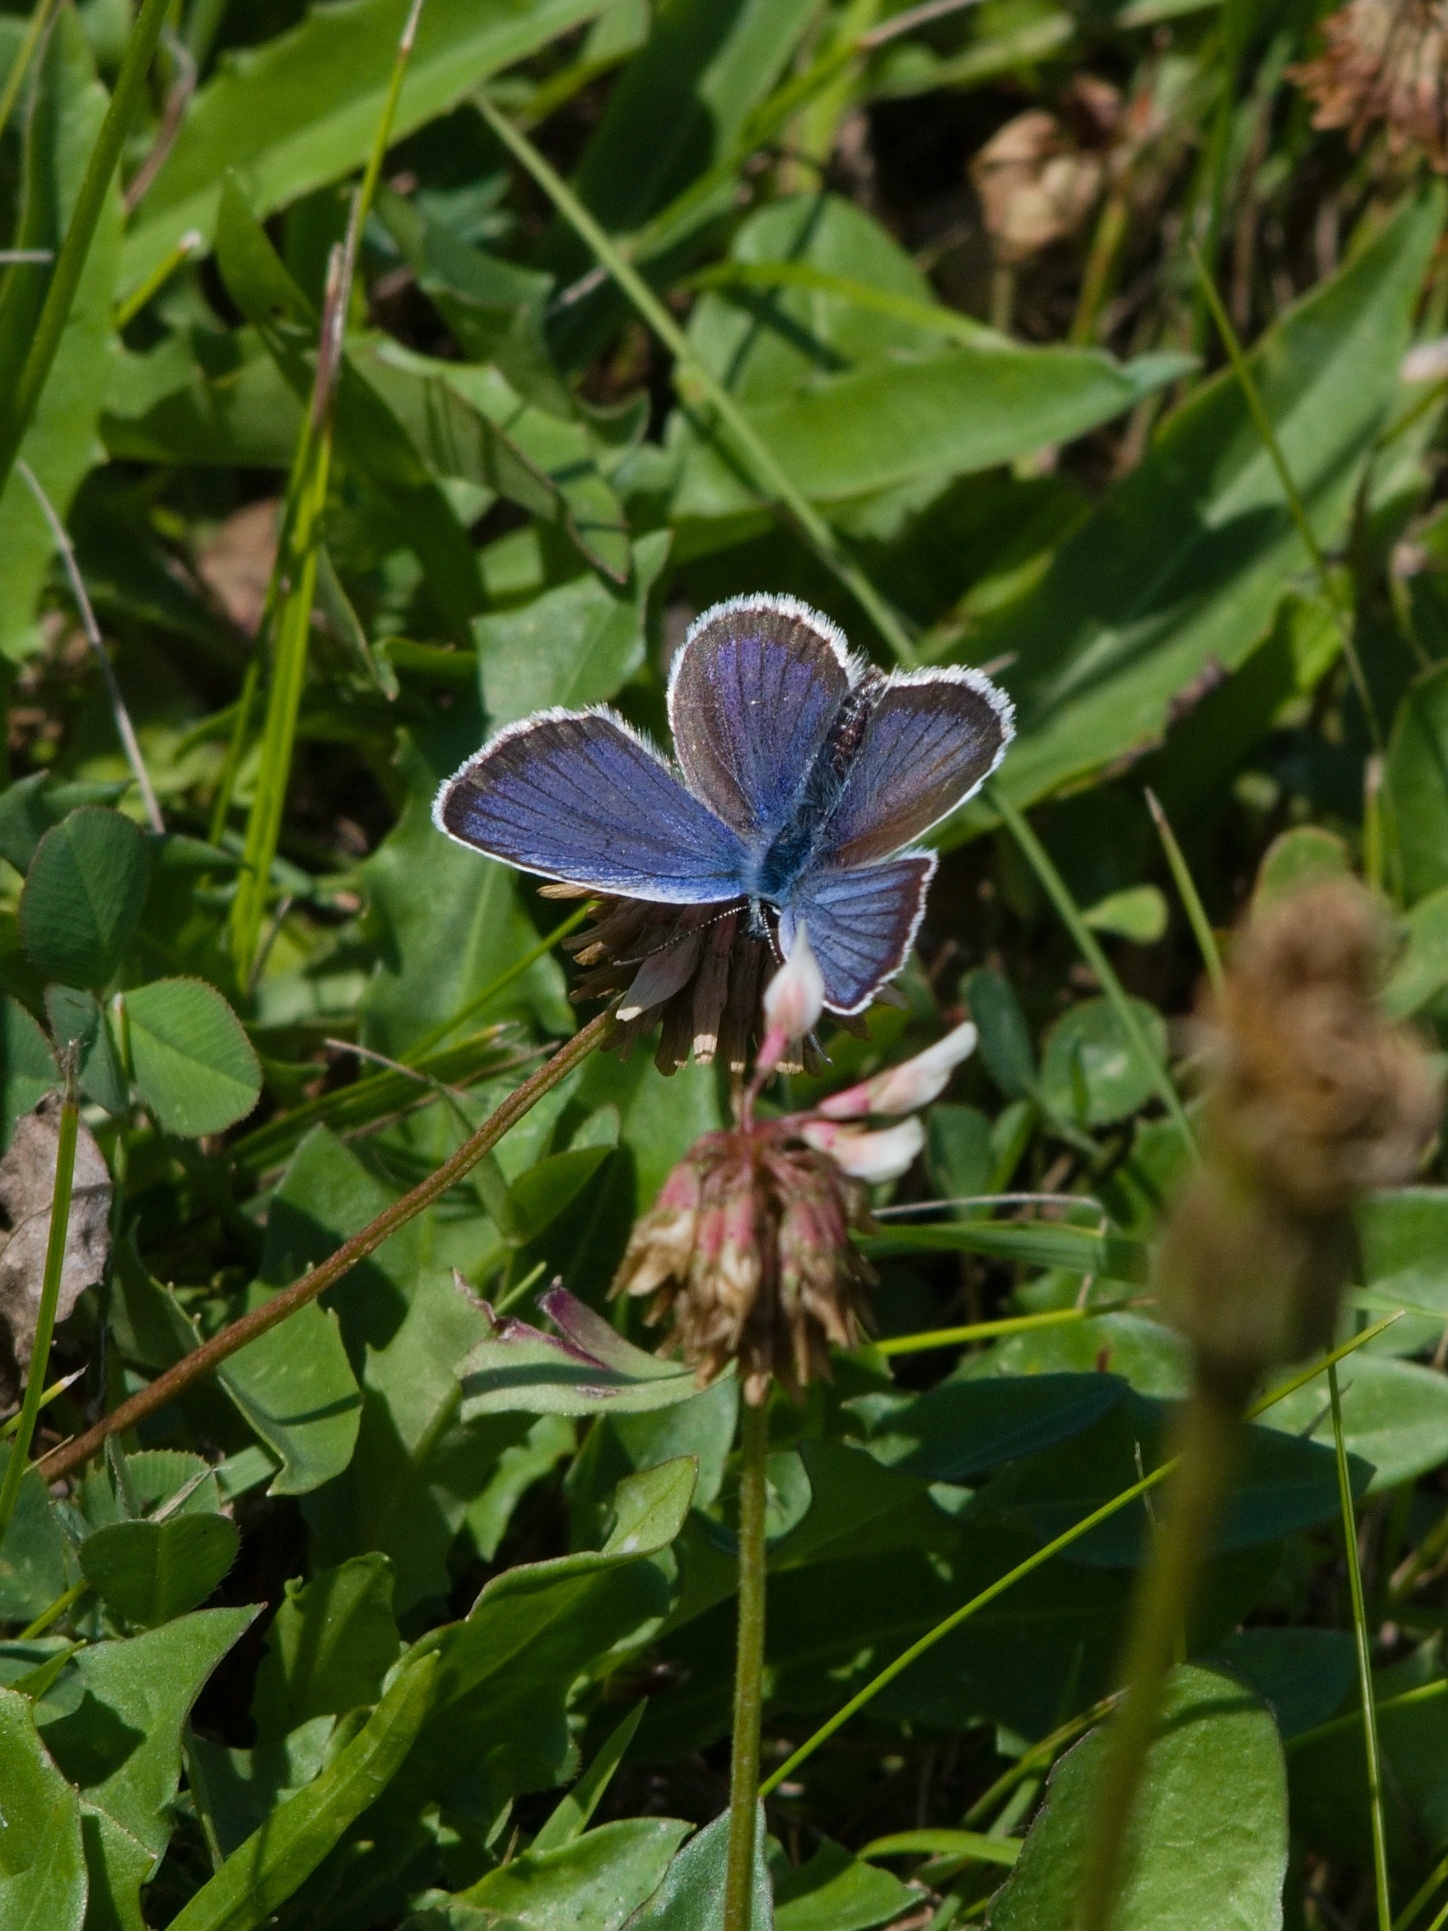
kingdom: Animalia
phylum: Arthropoda
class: Insecta
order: Lepidoptera
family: Lycaenidae
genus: Plebejus
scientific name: Plebejus argus
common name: Silver-studded blue
